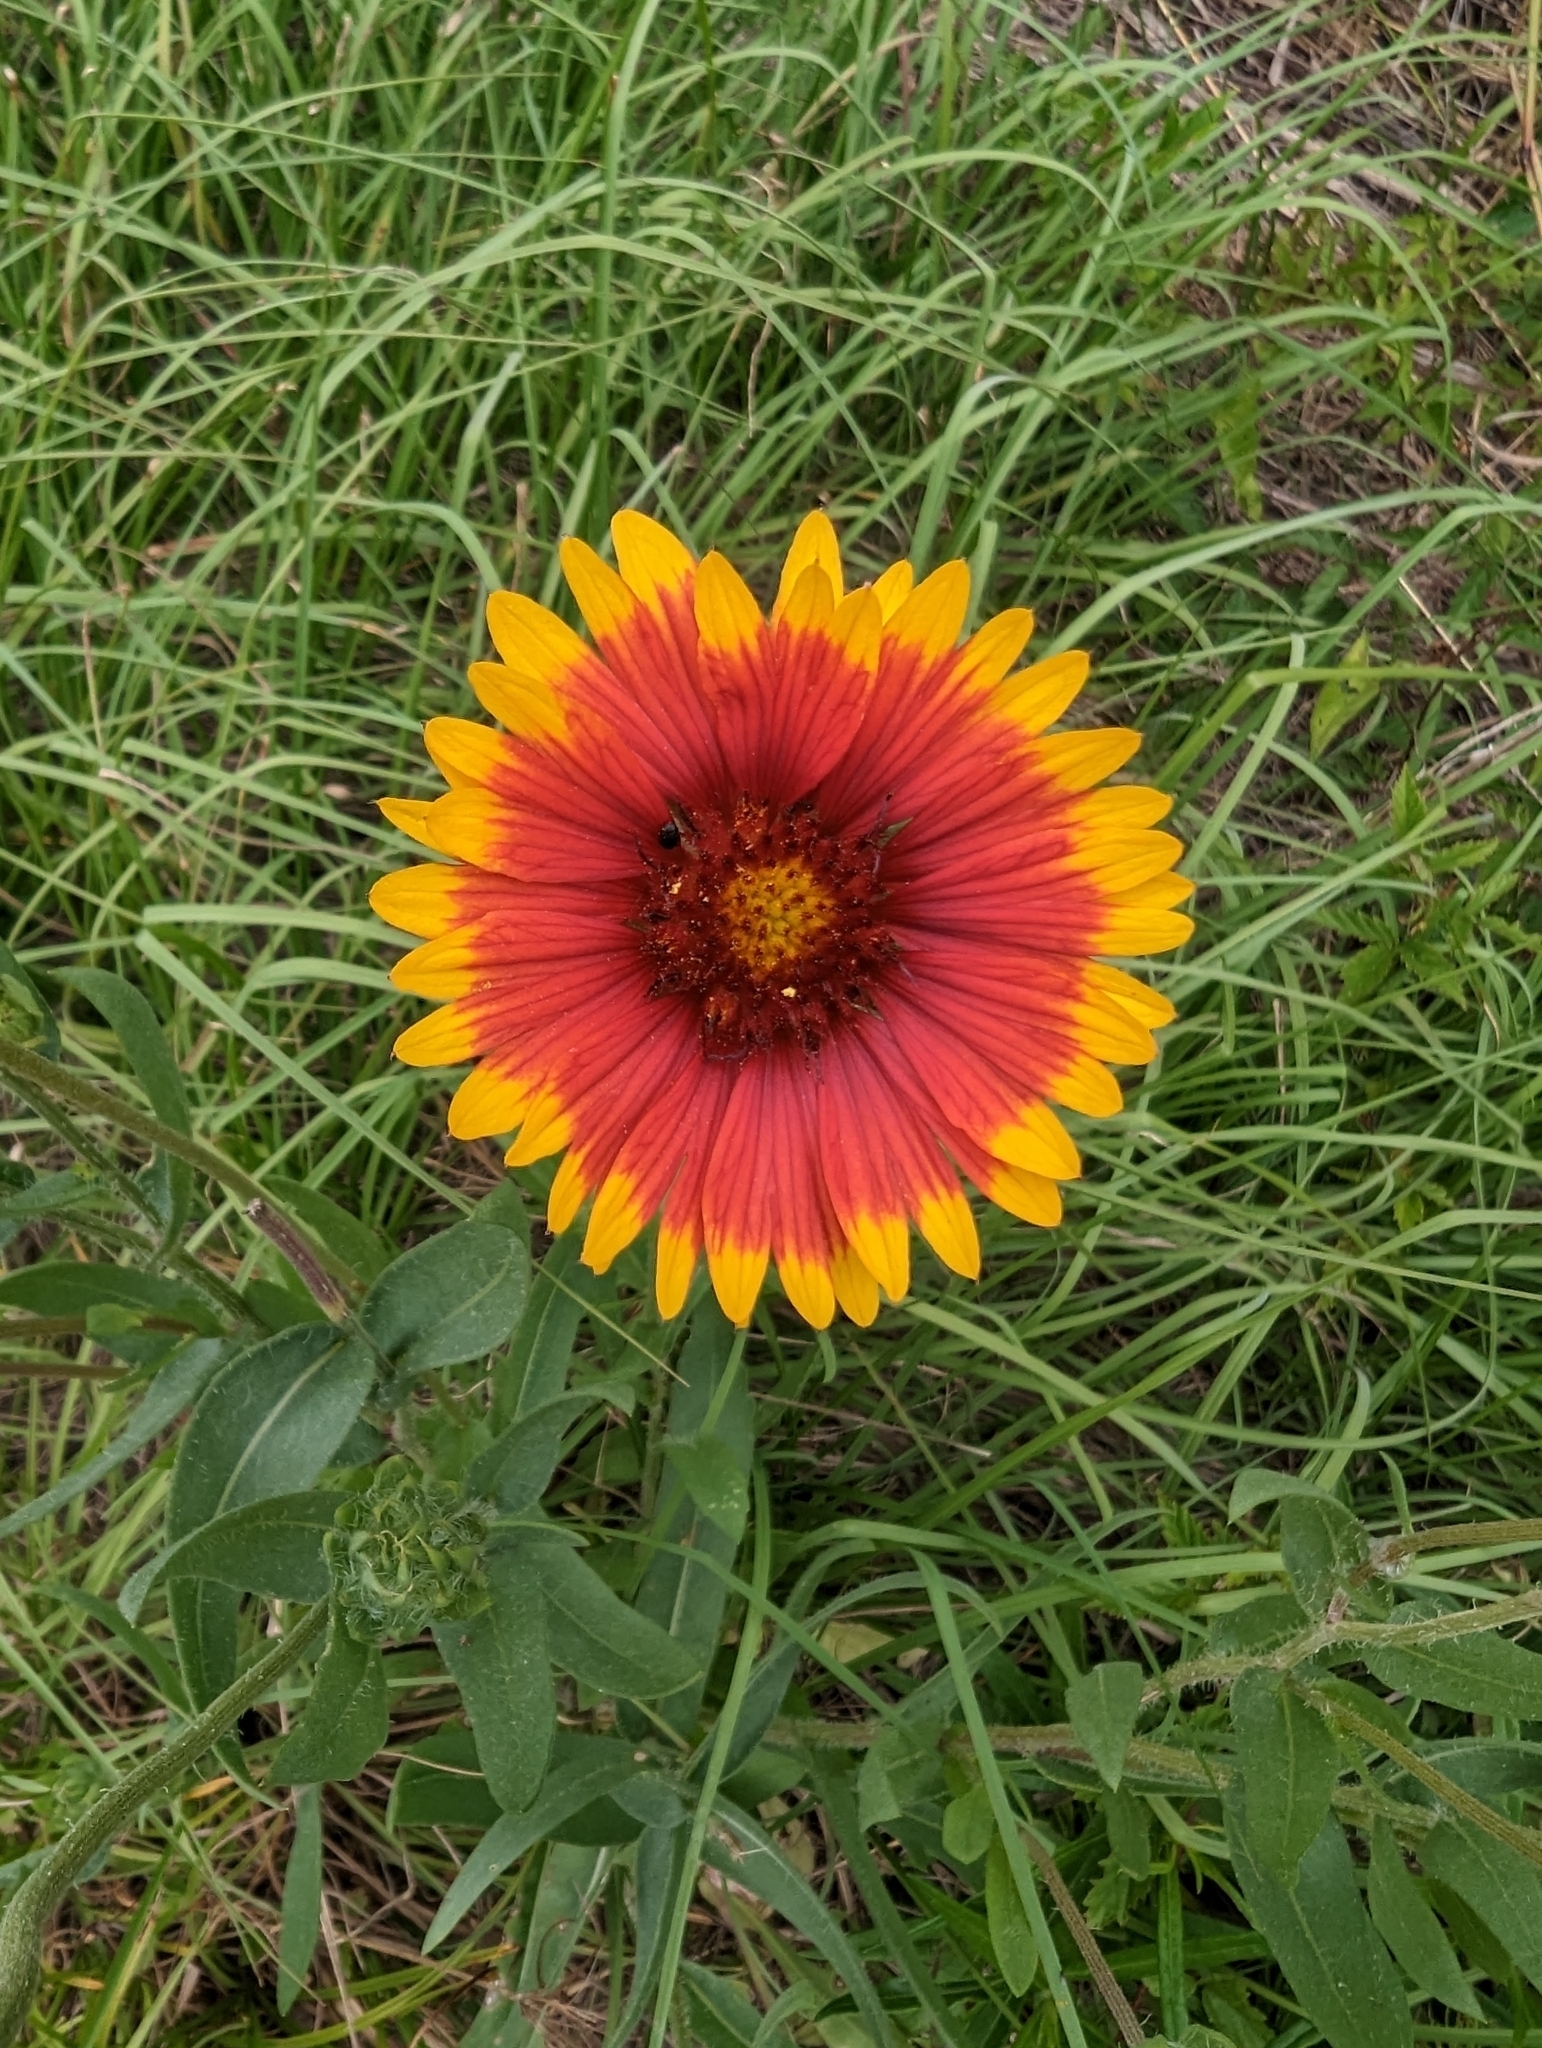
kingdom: Plantae
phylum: Tracheophyta
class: Magnoliopsida
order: Asterales
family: Asteraceae
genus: Gaillardia
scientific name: Gaillardia pulchella
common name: Firewheel
